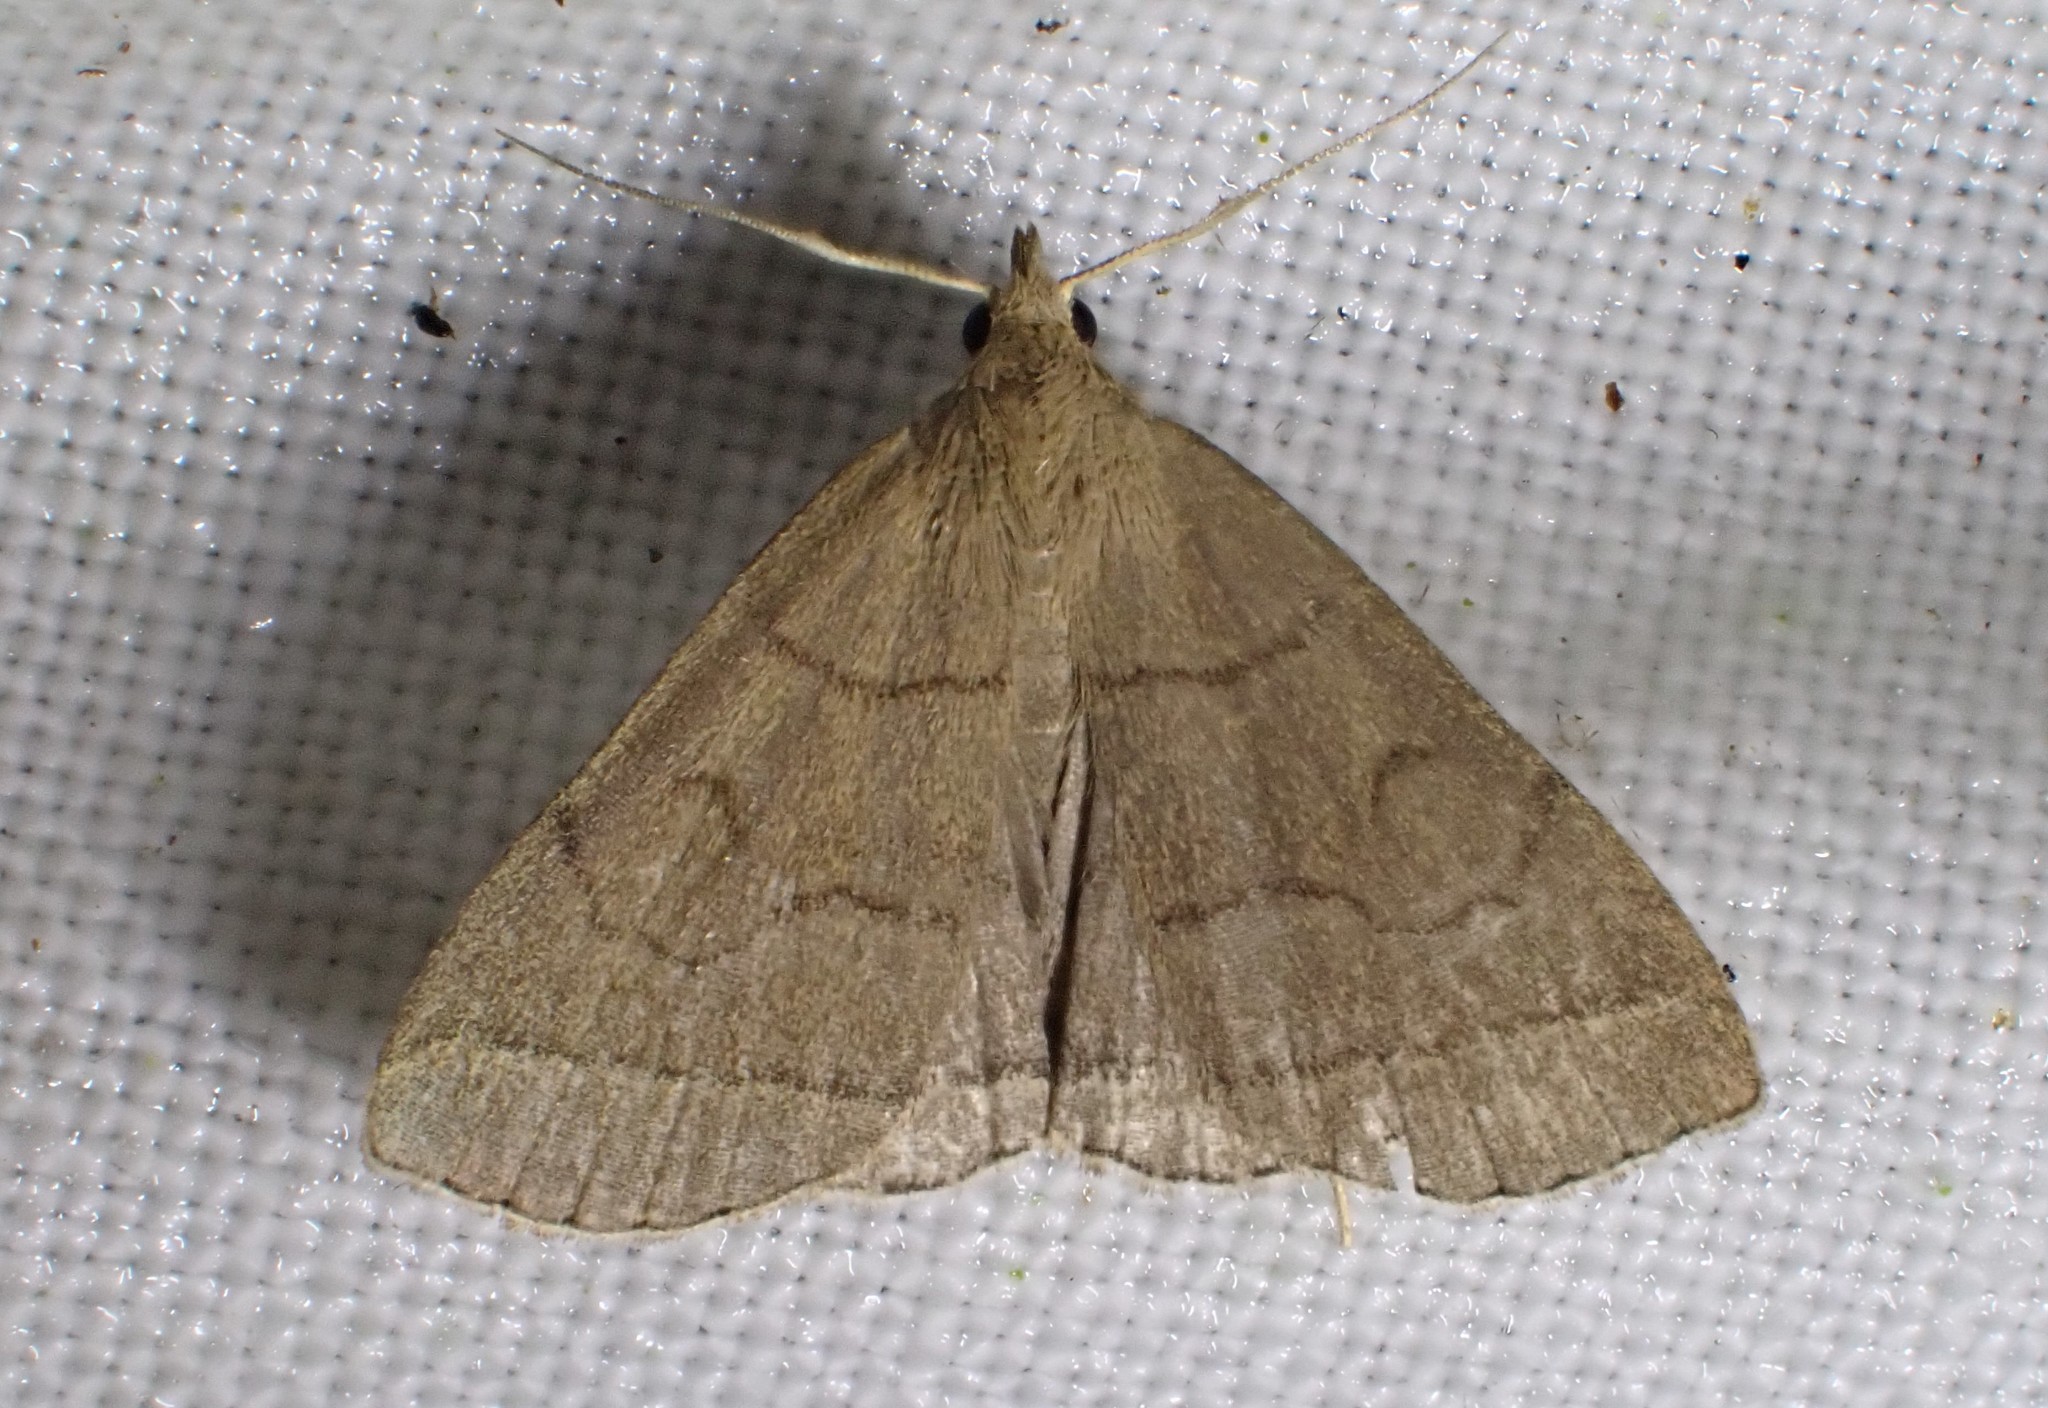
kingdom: Animalia
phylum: Arthropoda
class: Insecta
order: Lepidoptera
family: Erebidae
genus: Herminia
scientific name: Herminia tarsipennalis
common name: Fan-foot
